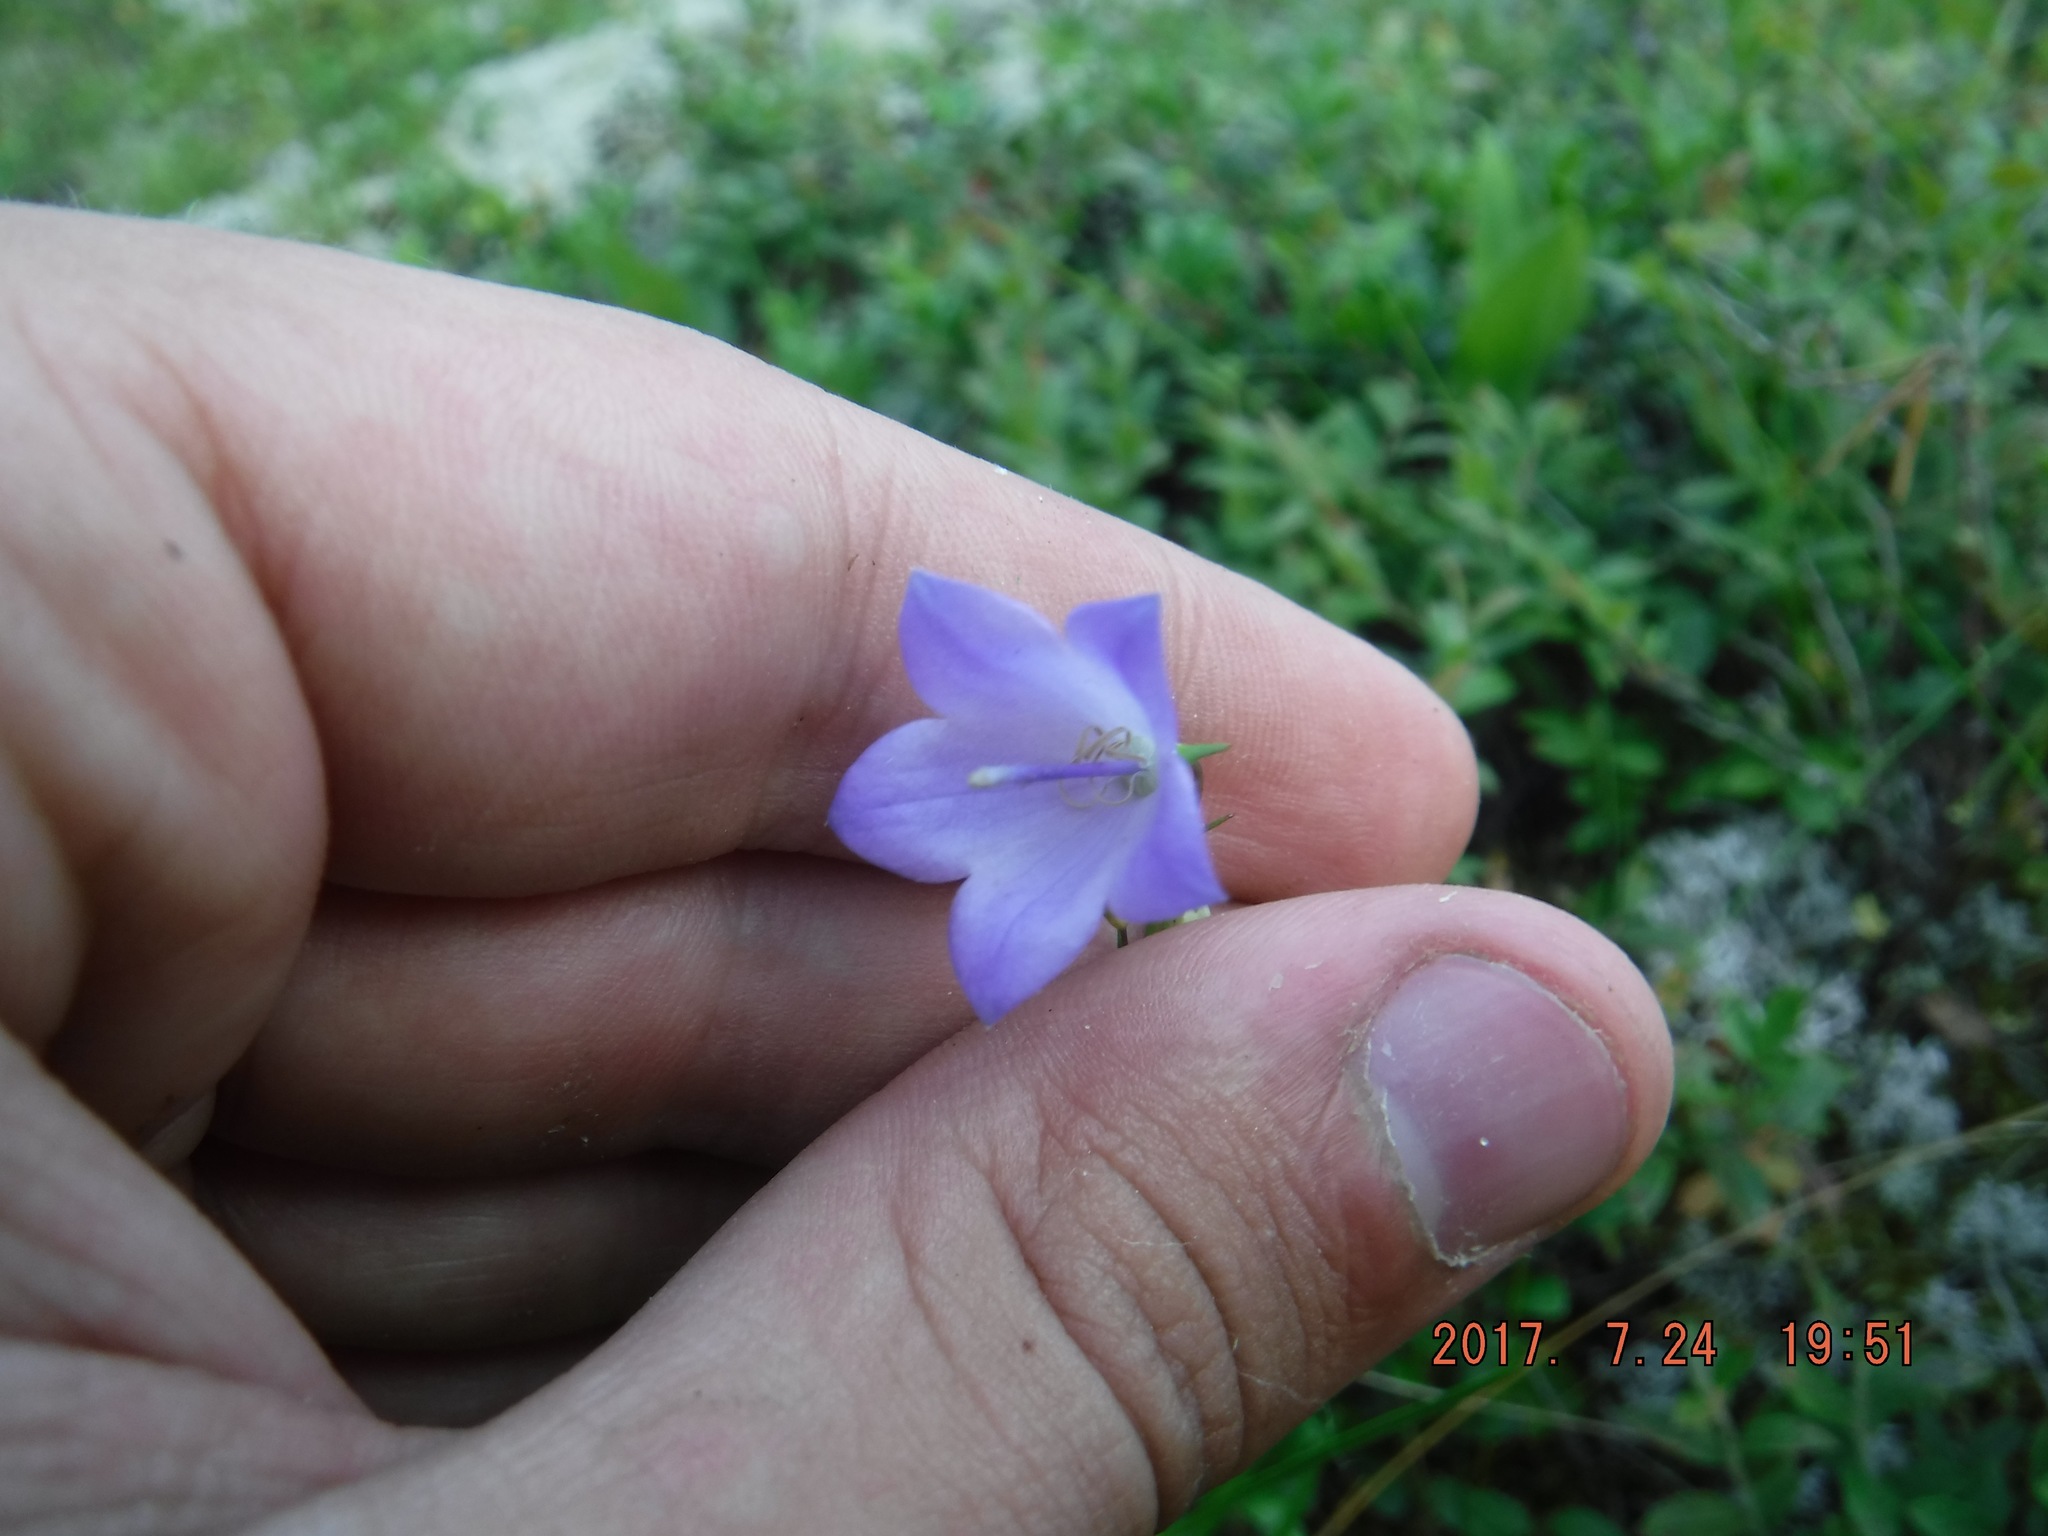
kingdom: Plantae
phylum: Tracheophyta
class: Magnoliopsida
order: Asterales
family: Campanulaceae
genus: Campanula
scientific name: Campanula giesekiana
